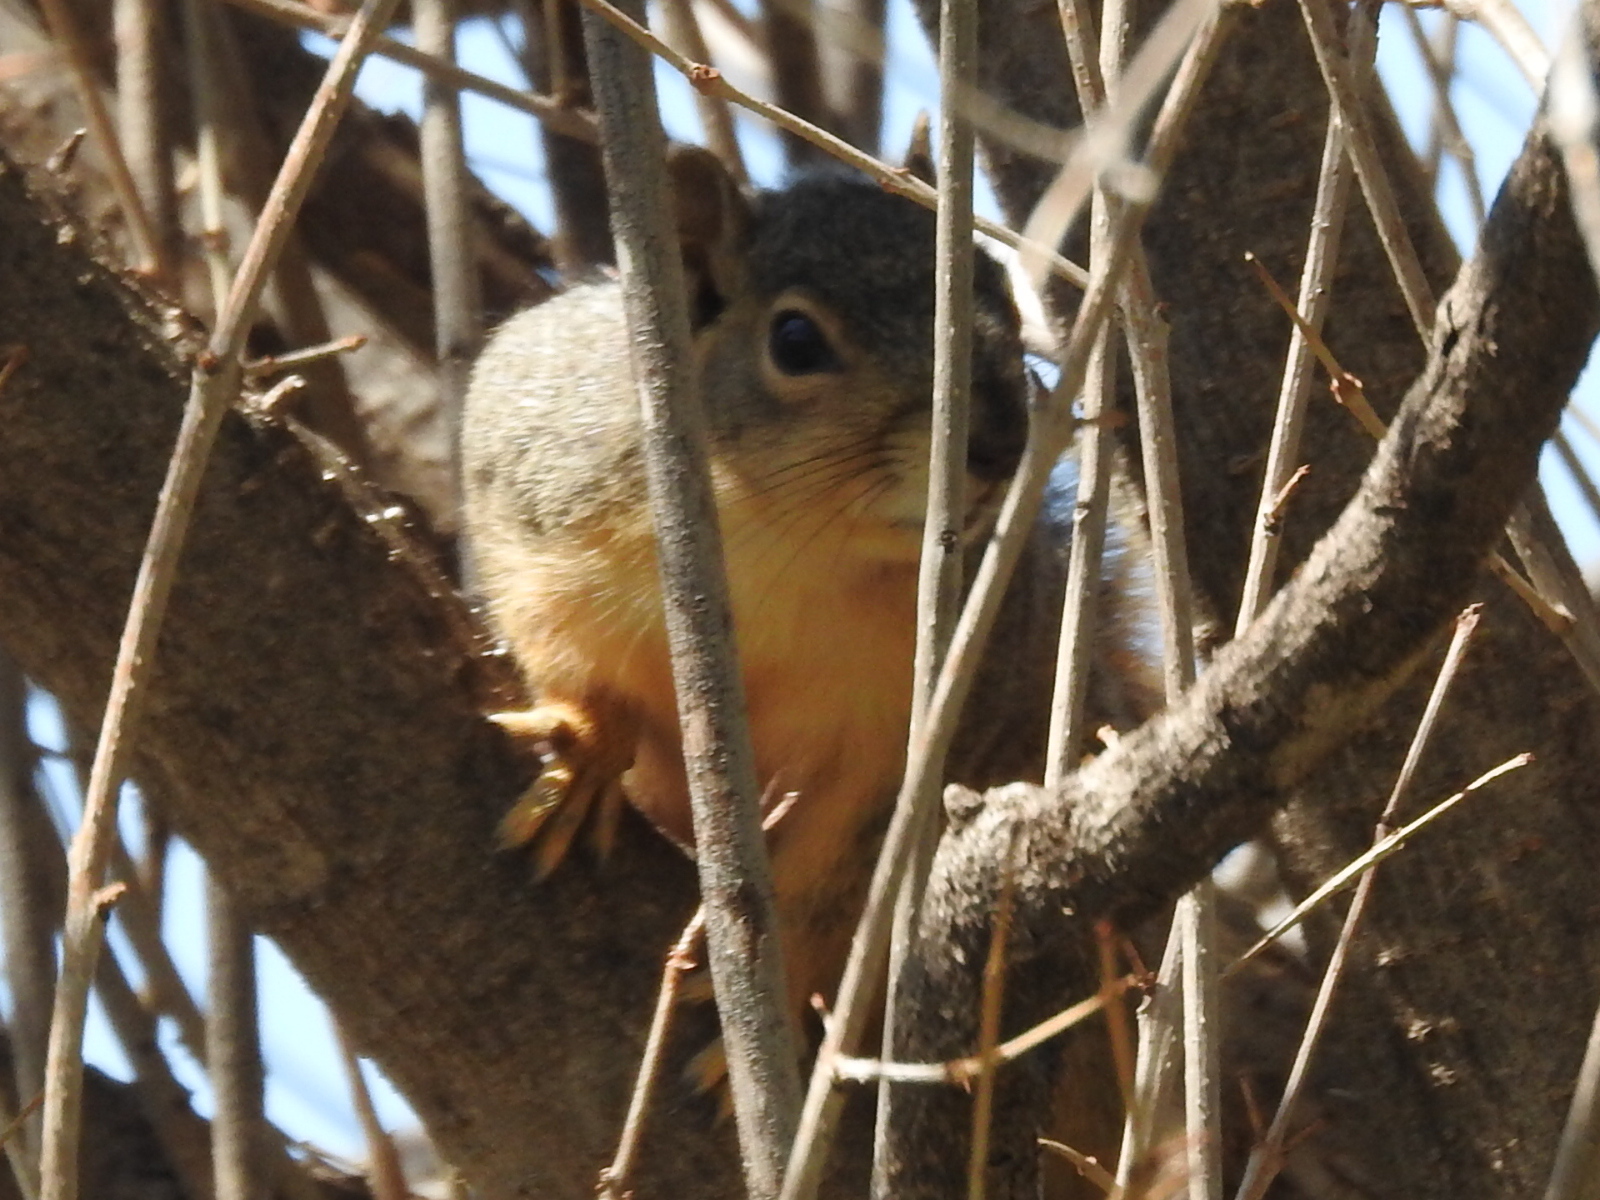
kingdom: Animalia
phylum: Chordata
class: Mammalia
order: Rodentia
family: Sciuridae
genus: Sciurus
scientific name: Sciurus niger
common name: Fox squirrel
